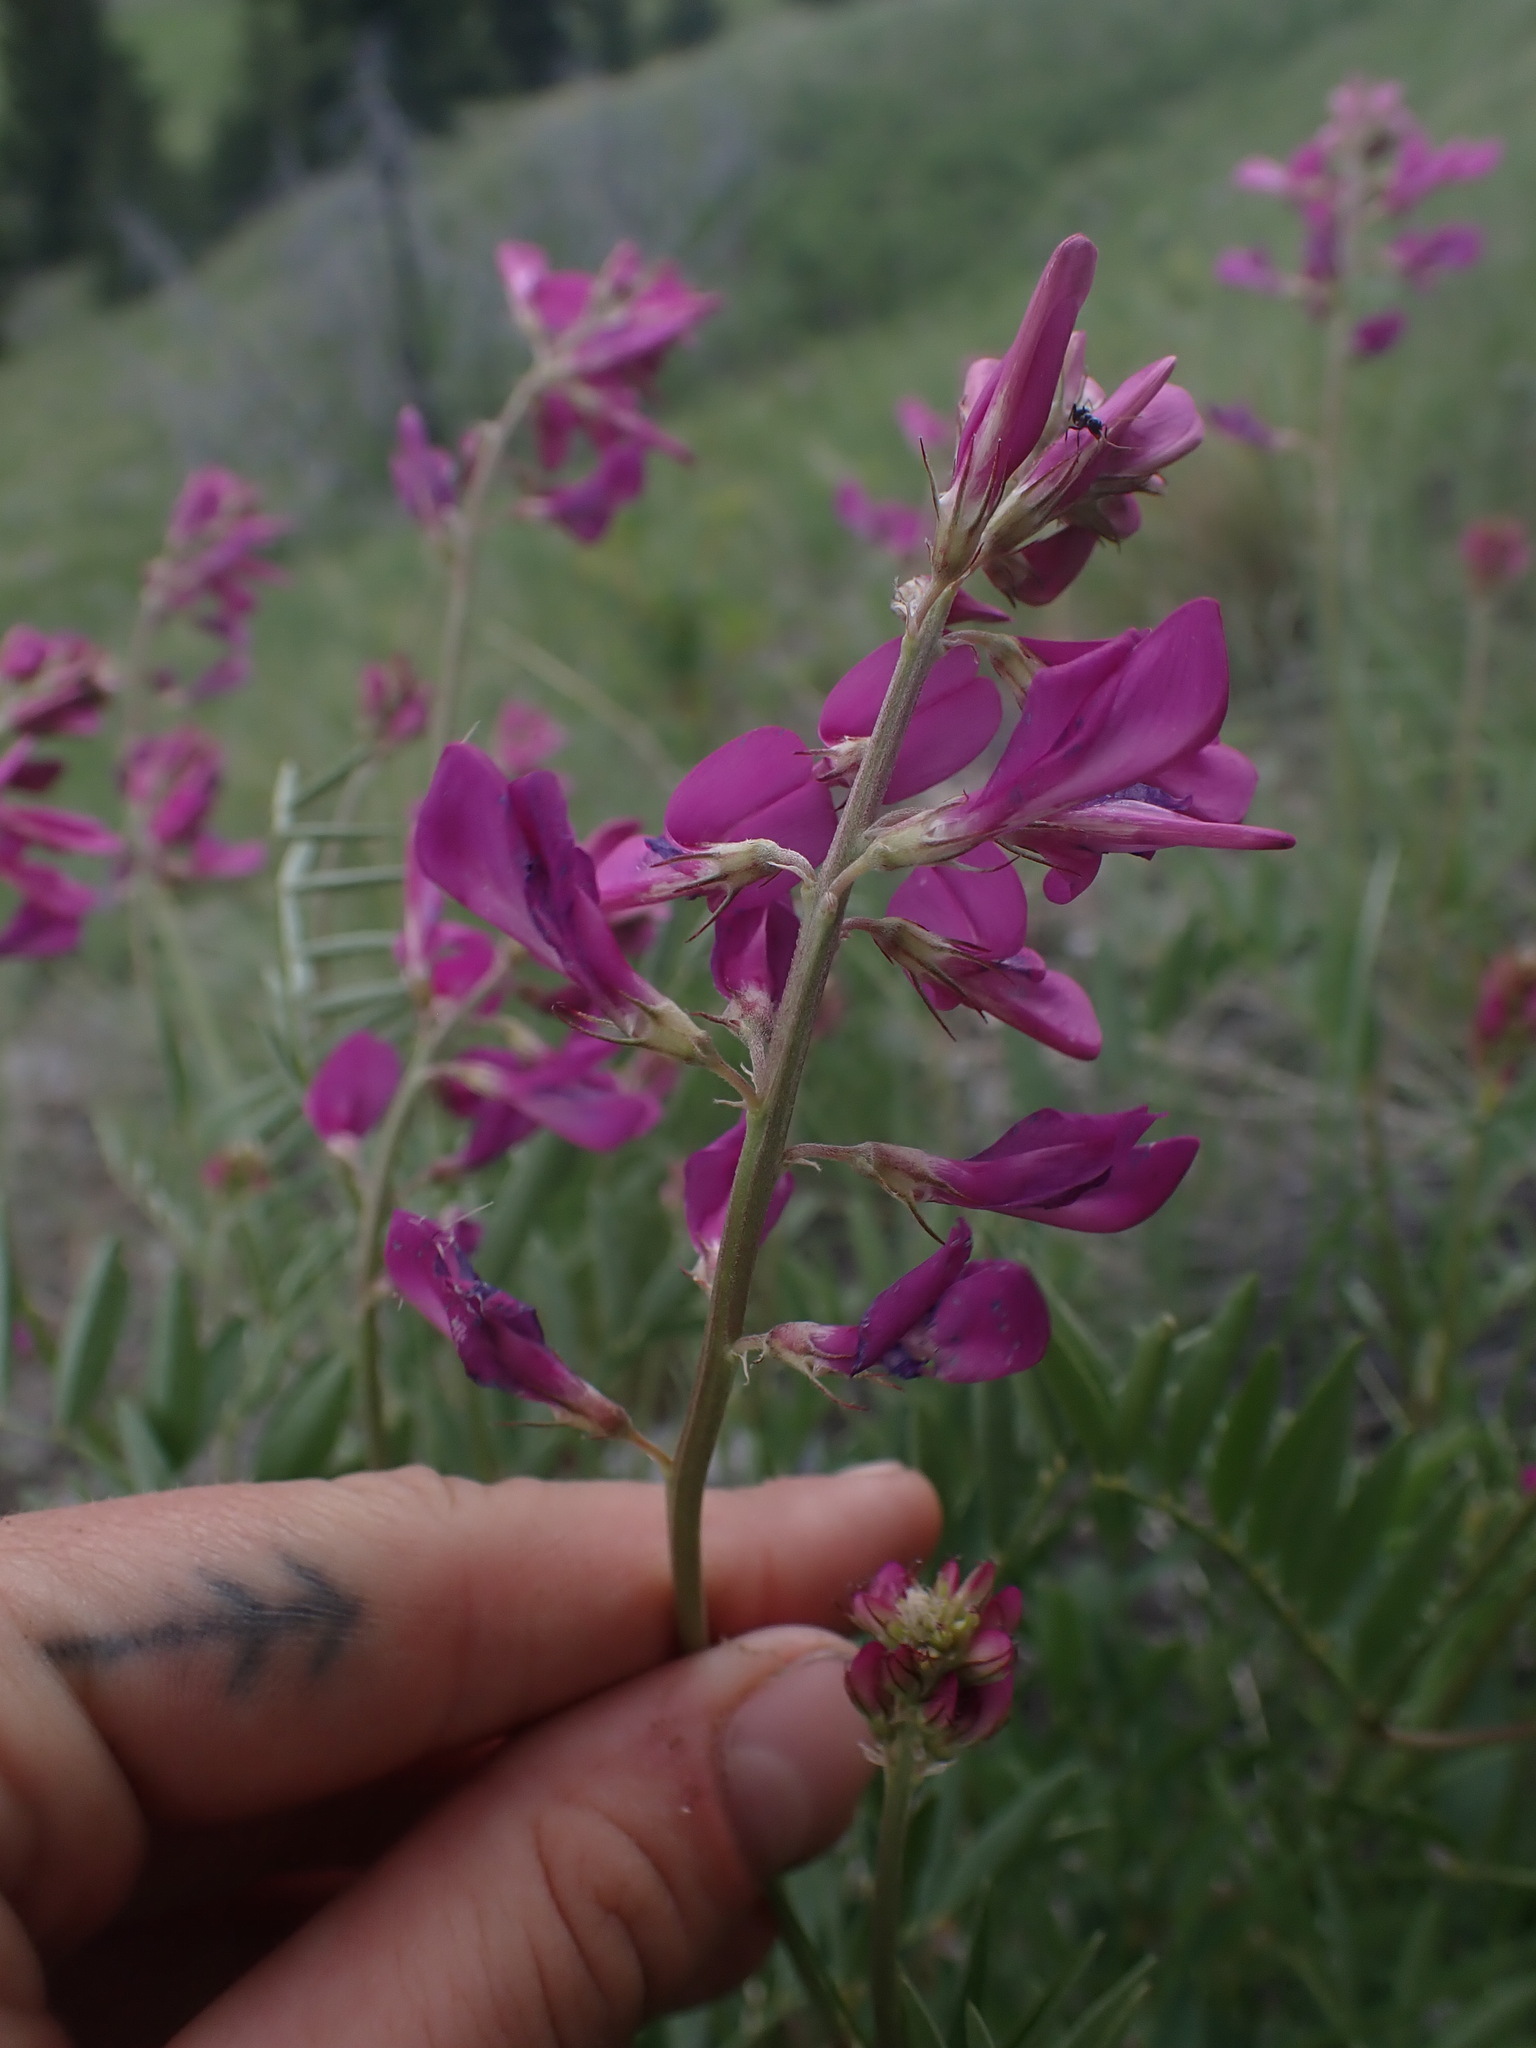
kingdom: Plantae
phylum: Tracheophyta
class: Magnoliopsida
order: Fabales
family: Fabaceae
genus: Hedysarum
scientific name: Hedysarum boreale
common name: Northern sweet-vetch
